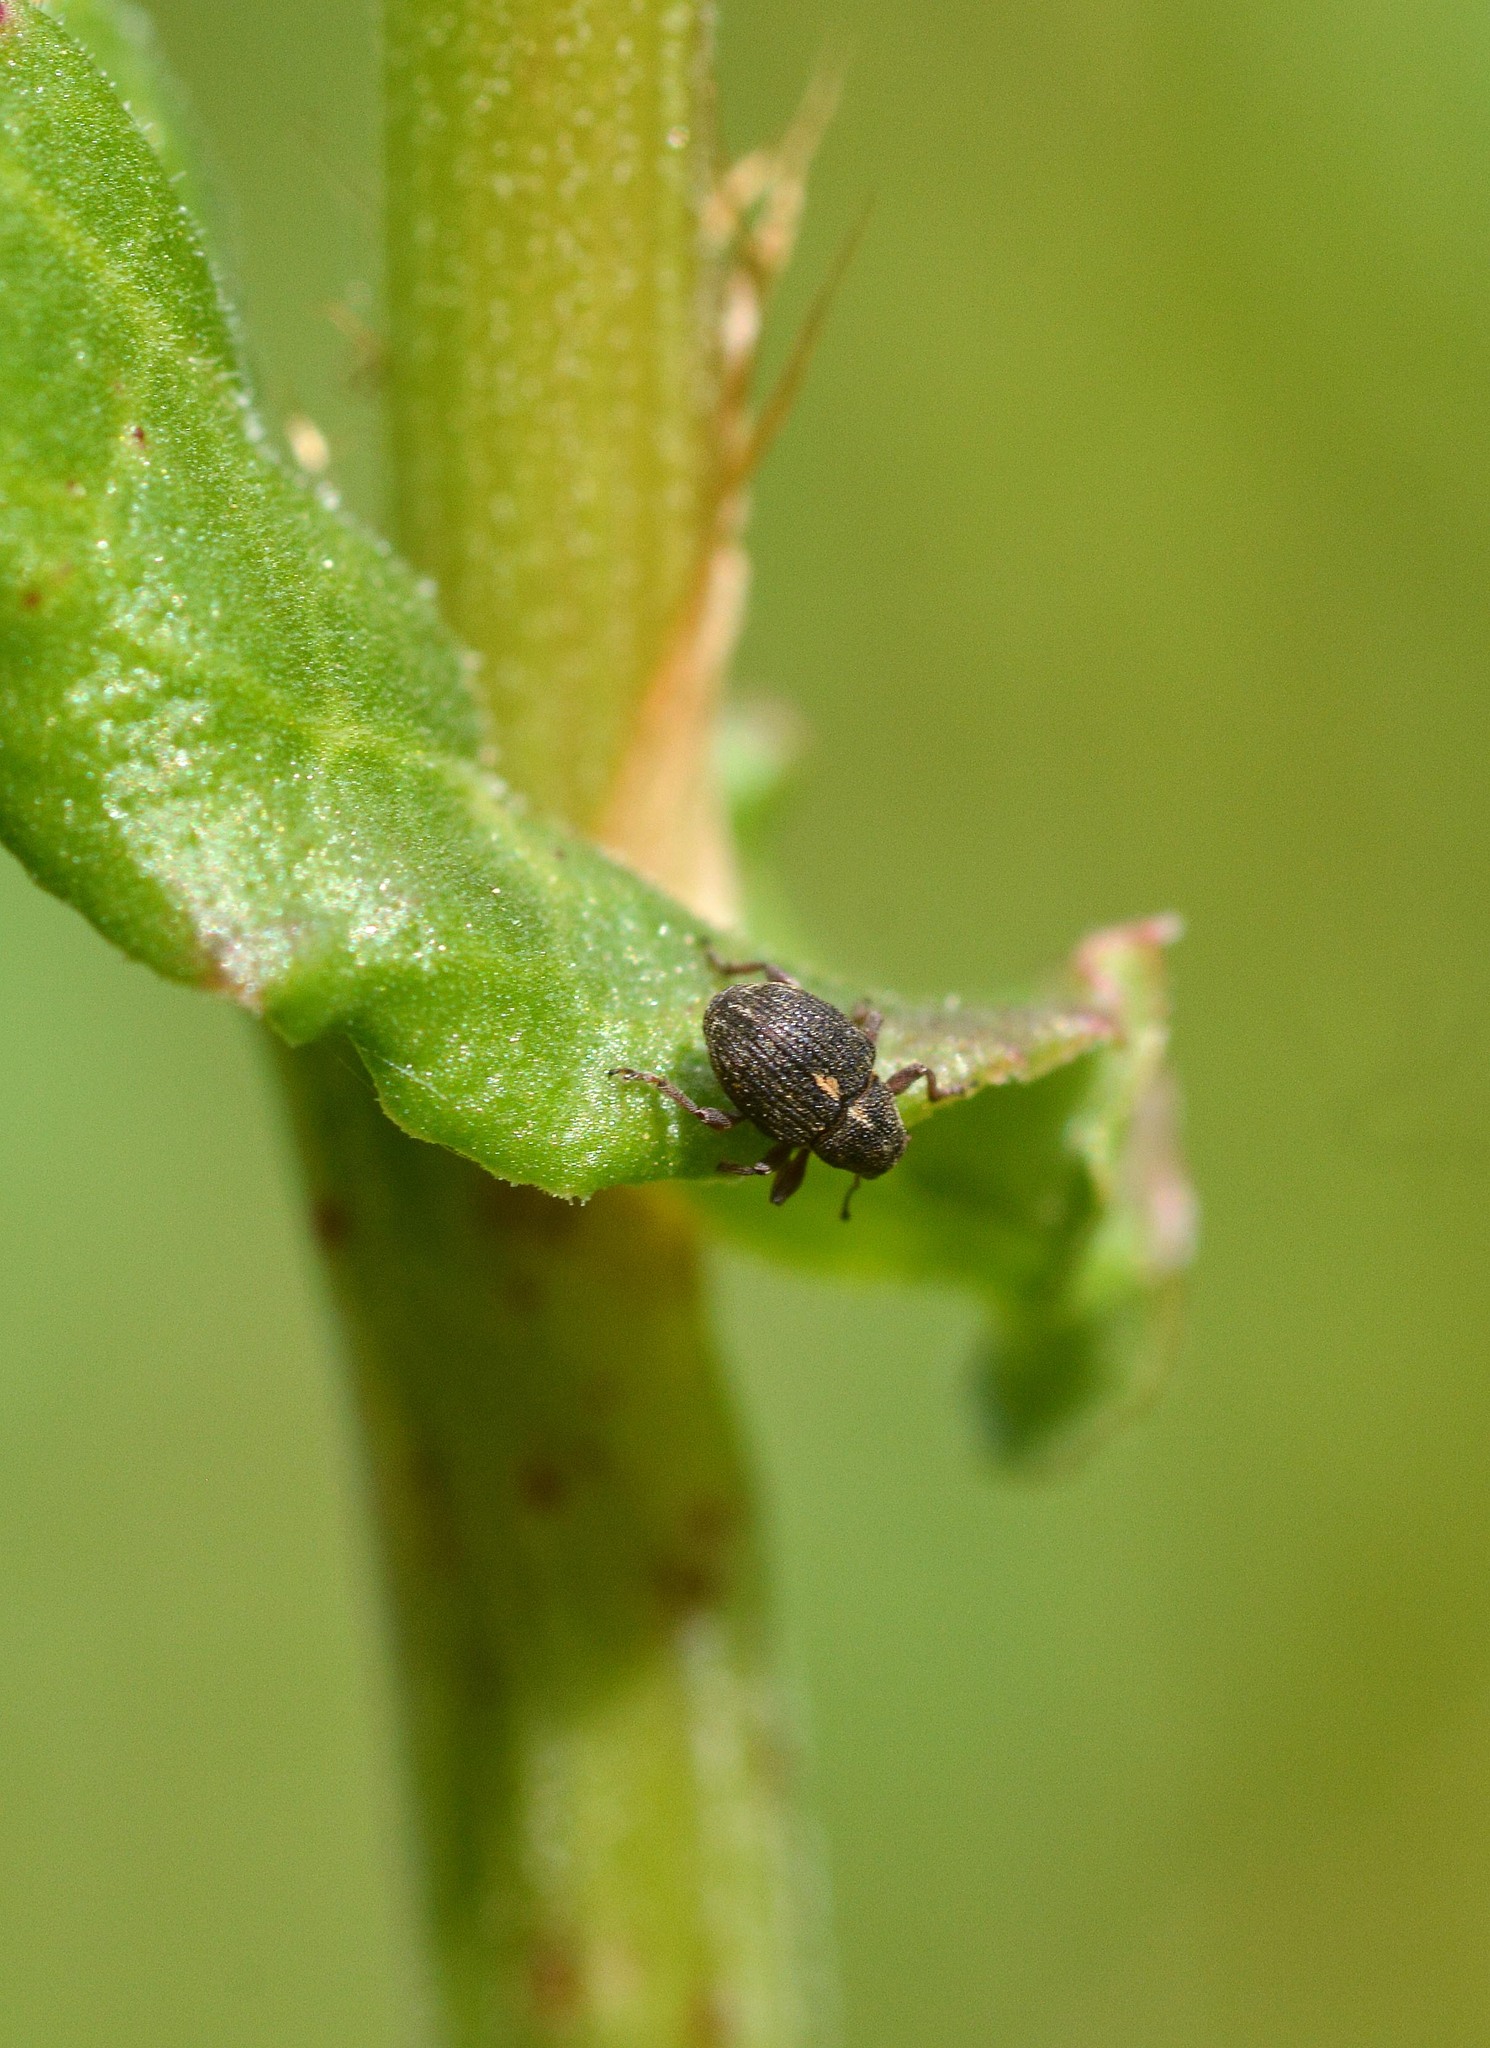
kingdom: Animalia
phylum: Arthropoda
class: Insecta
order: Coleoptera
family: Curculionidae
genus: Rhinoncus
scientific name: Rhinoncus leucostigma
